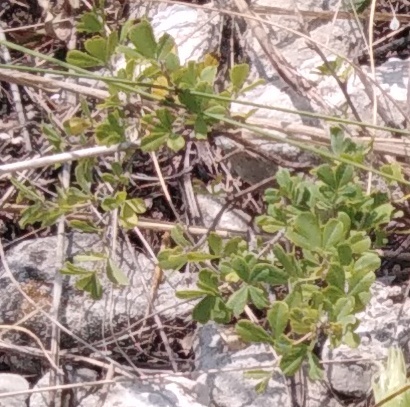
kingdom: Plantae
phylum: Tracheophyta
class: Magnoliopsida
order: Fabales
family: Fabaceae
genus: Caragana
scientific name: Caragana frutex
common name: Russian peashrub
